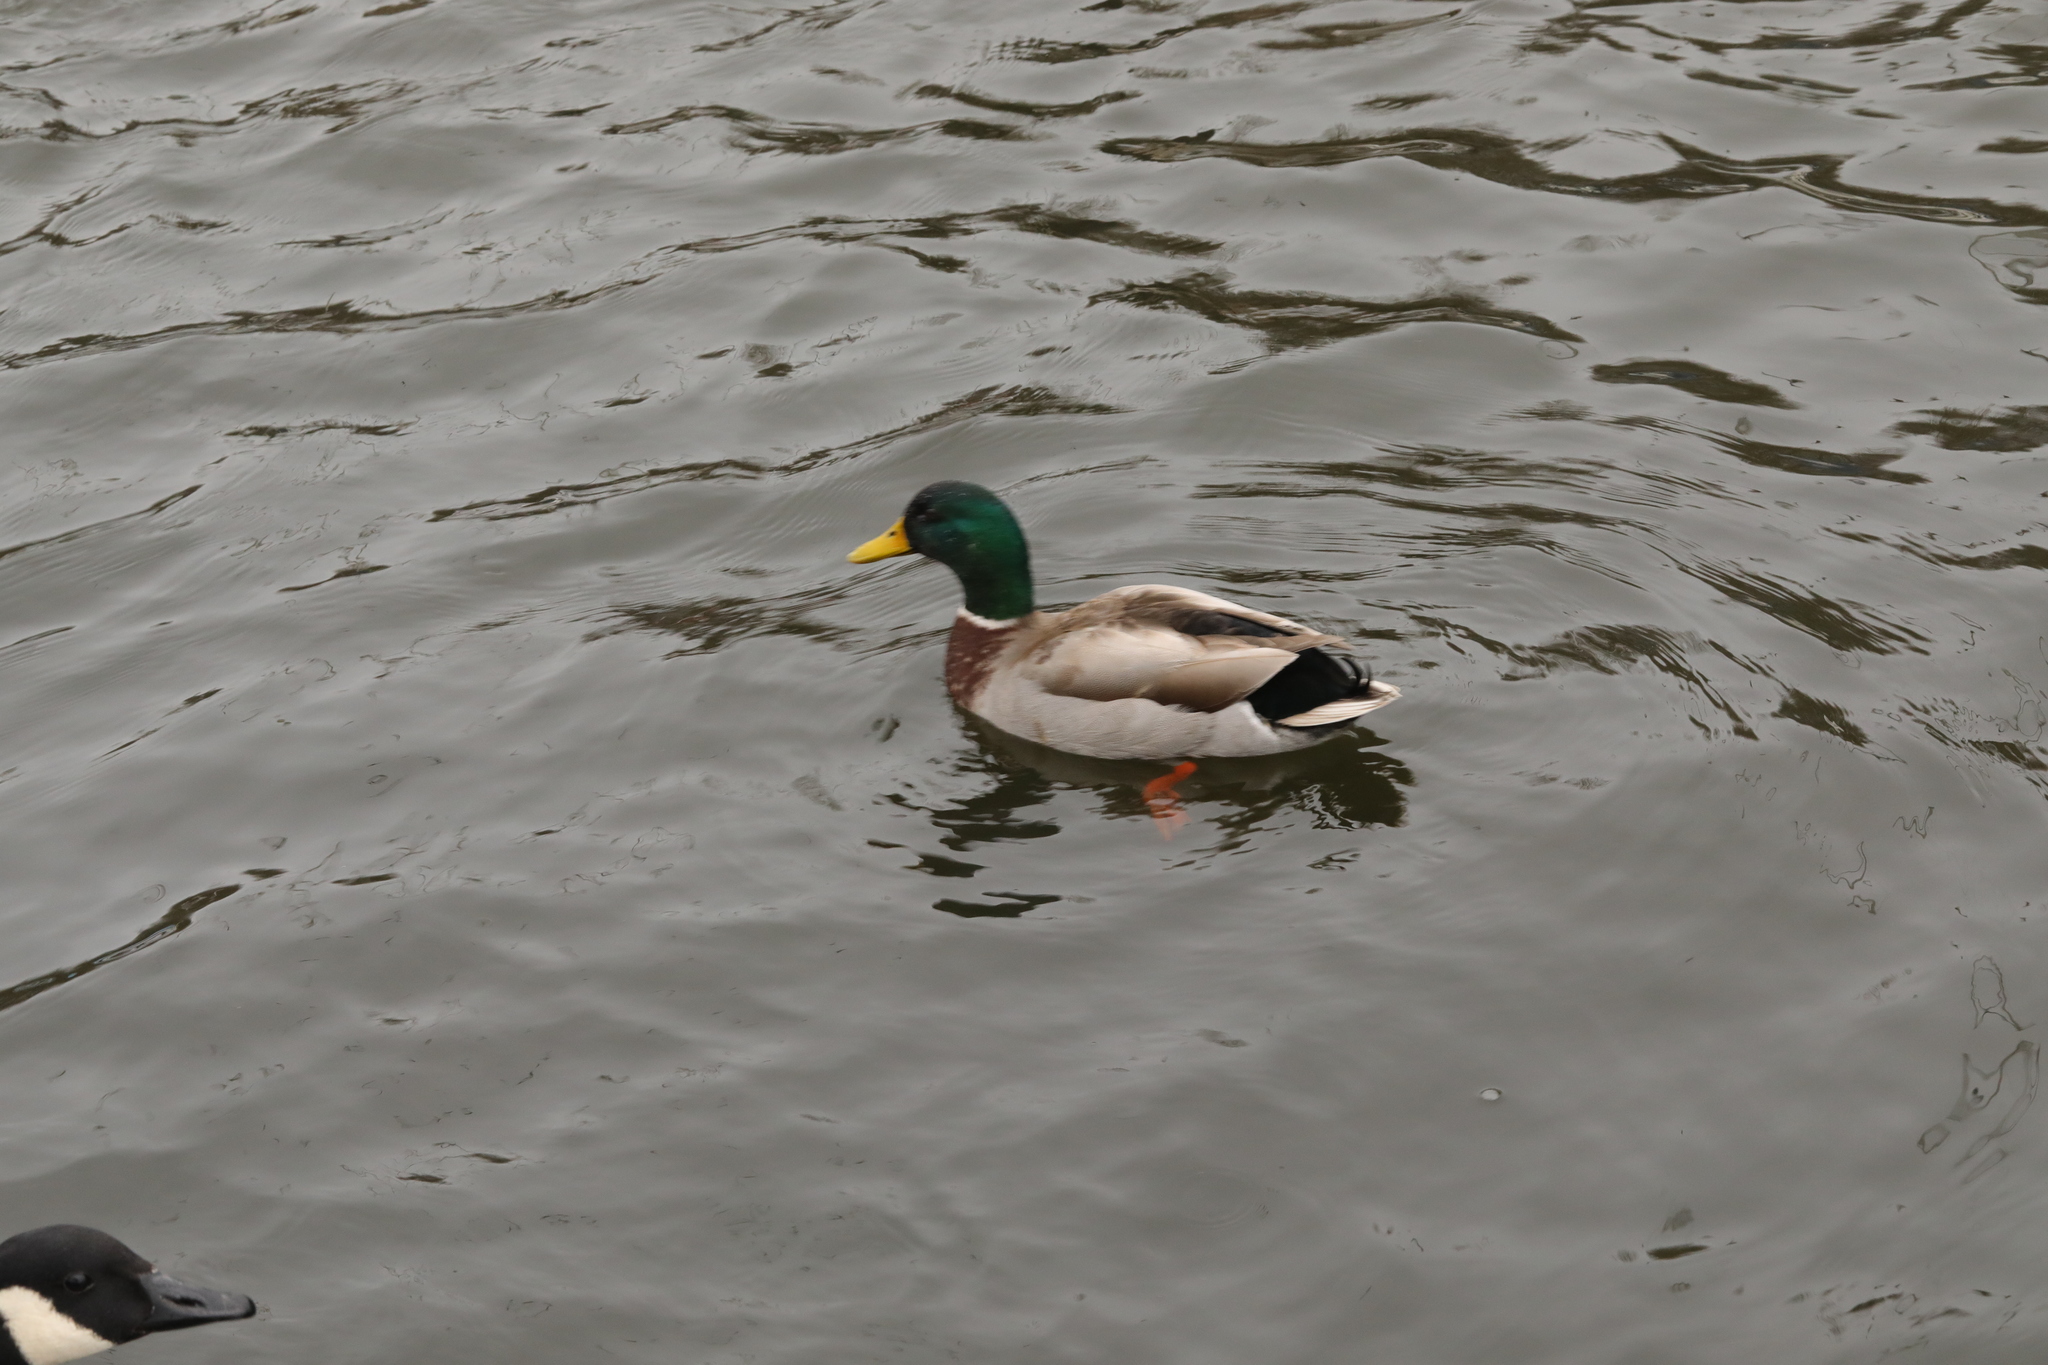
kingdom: Animalia
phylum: Chordata
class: Aves
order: Anseriformes
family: Anatidae
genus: Anas
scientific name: Anas platyrhynchos
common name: Mallard
